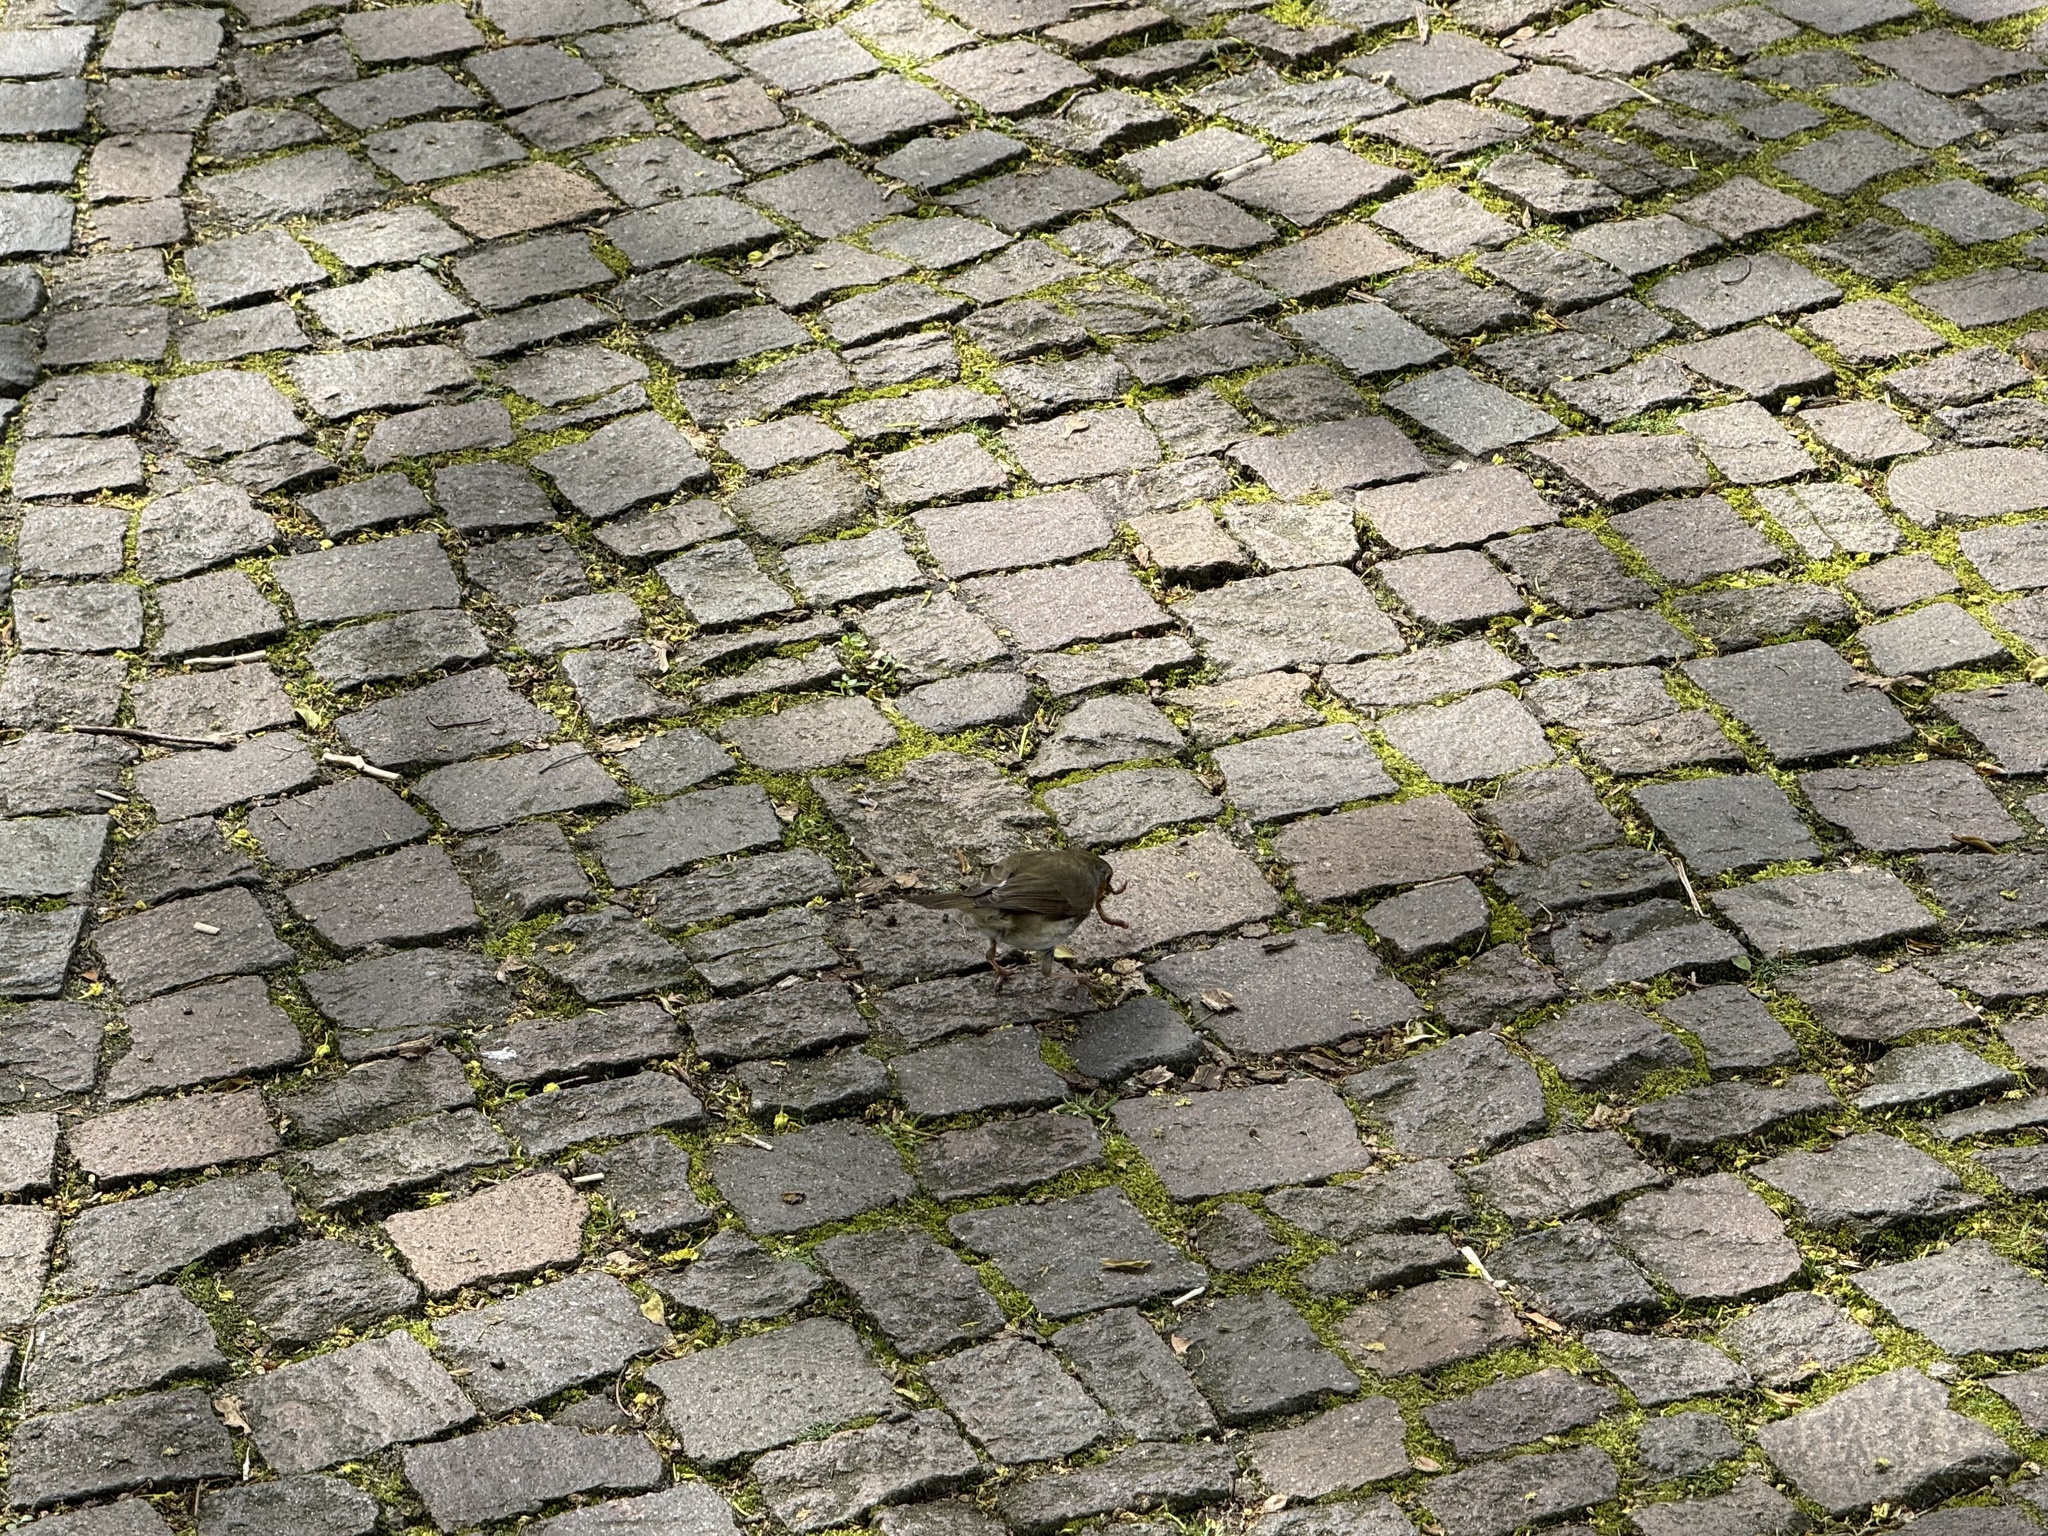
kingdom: Animalia
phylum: Chordata
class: Aves
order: Passeriformes
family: Muscicapidae
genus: Erithacus
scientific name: Erithacus rubecula
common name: European robin
